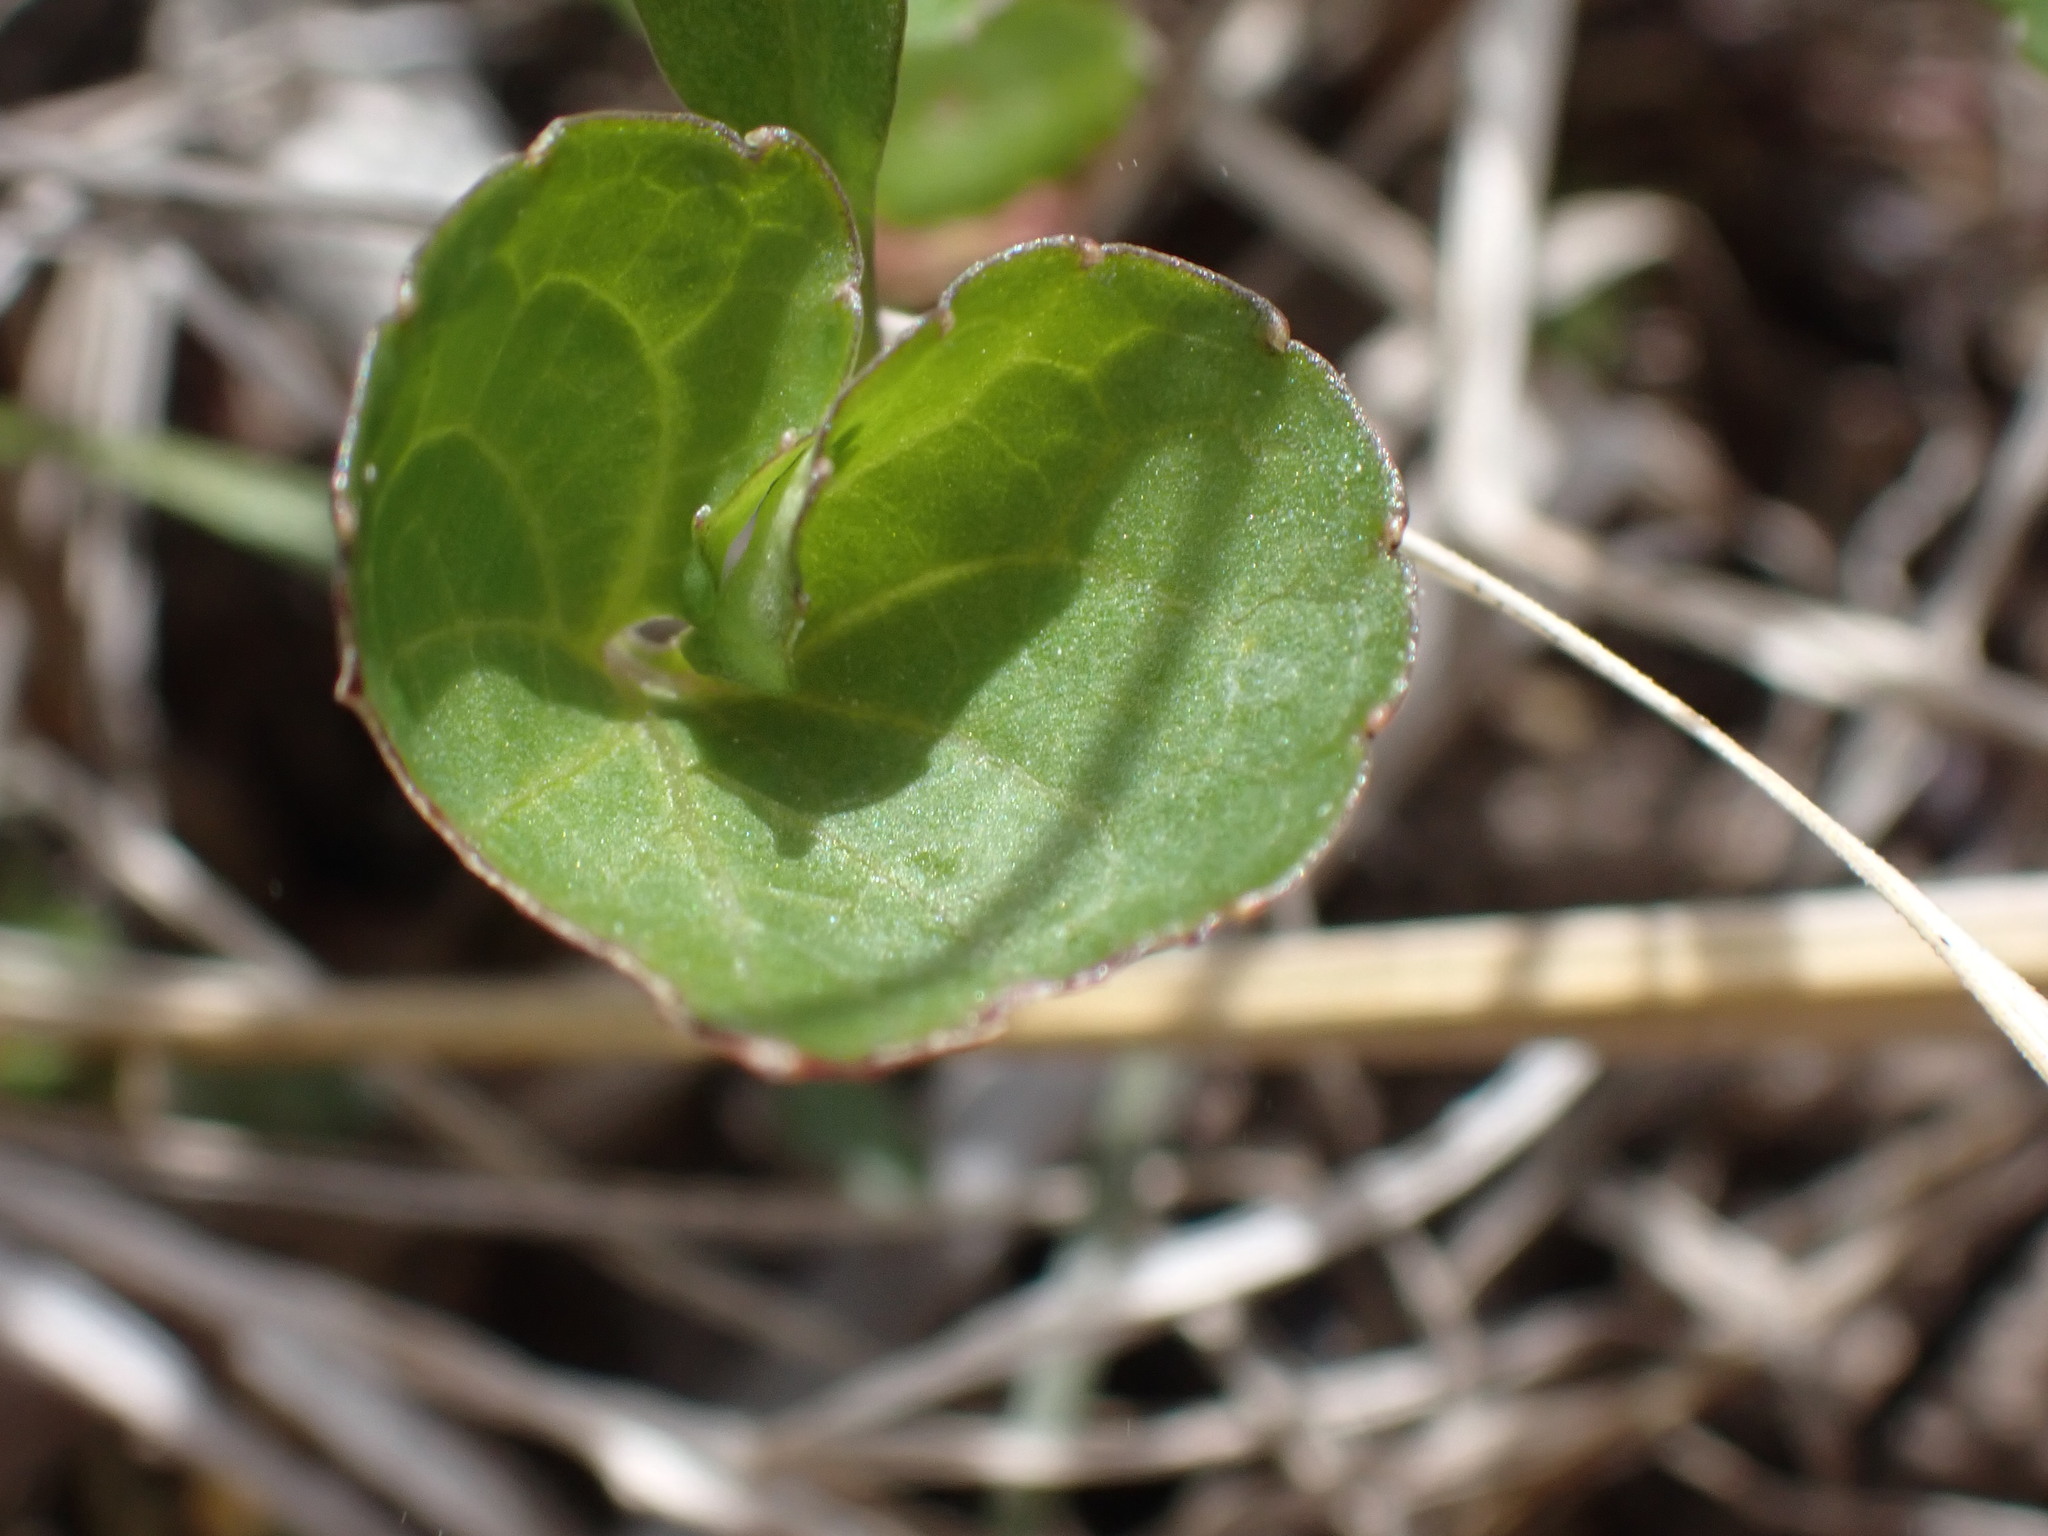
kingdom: Plantae
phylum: Tracheophyta
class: Magnoliopsida
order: Malpighiales
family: Violaceae
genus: Viola
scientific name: Viola nephrophylla
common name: Blue meadow violet
